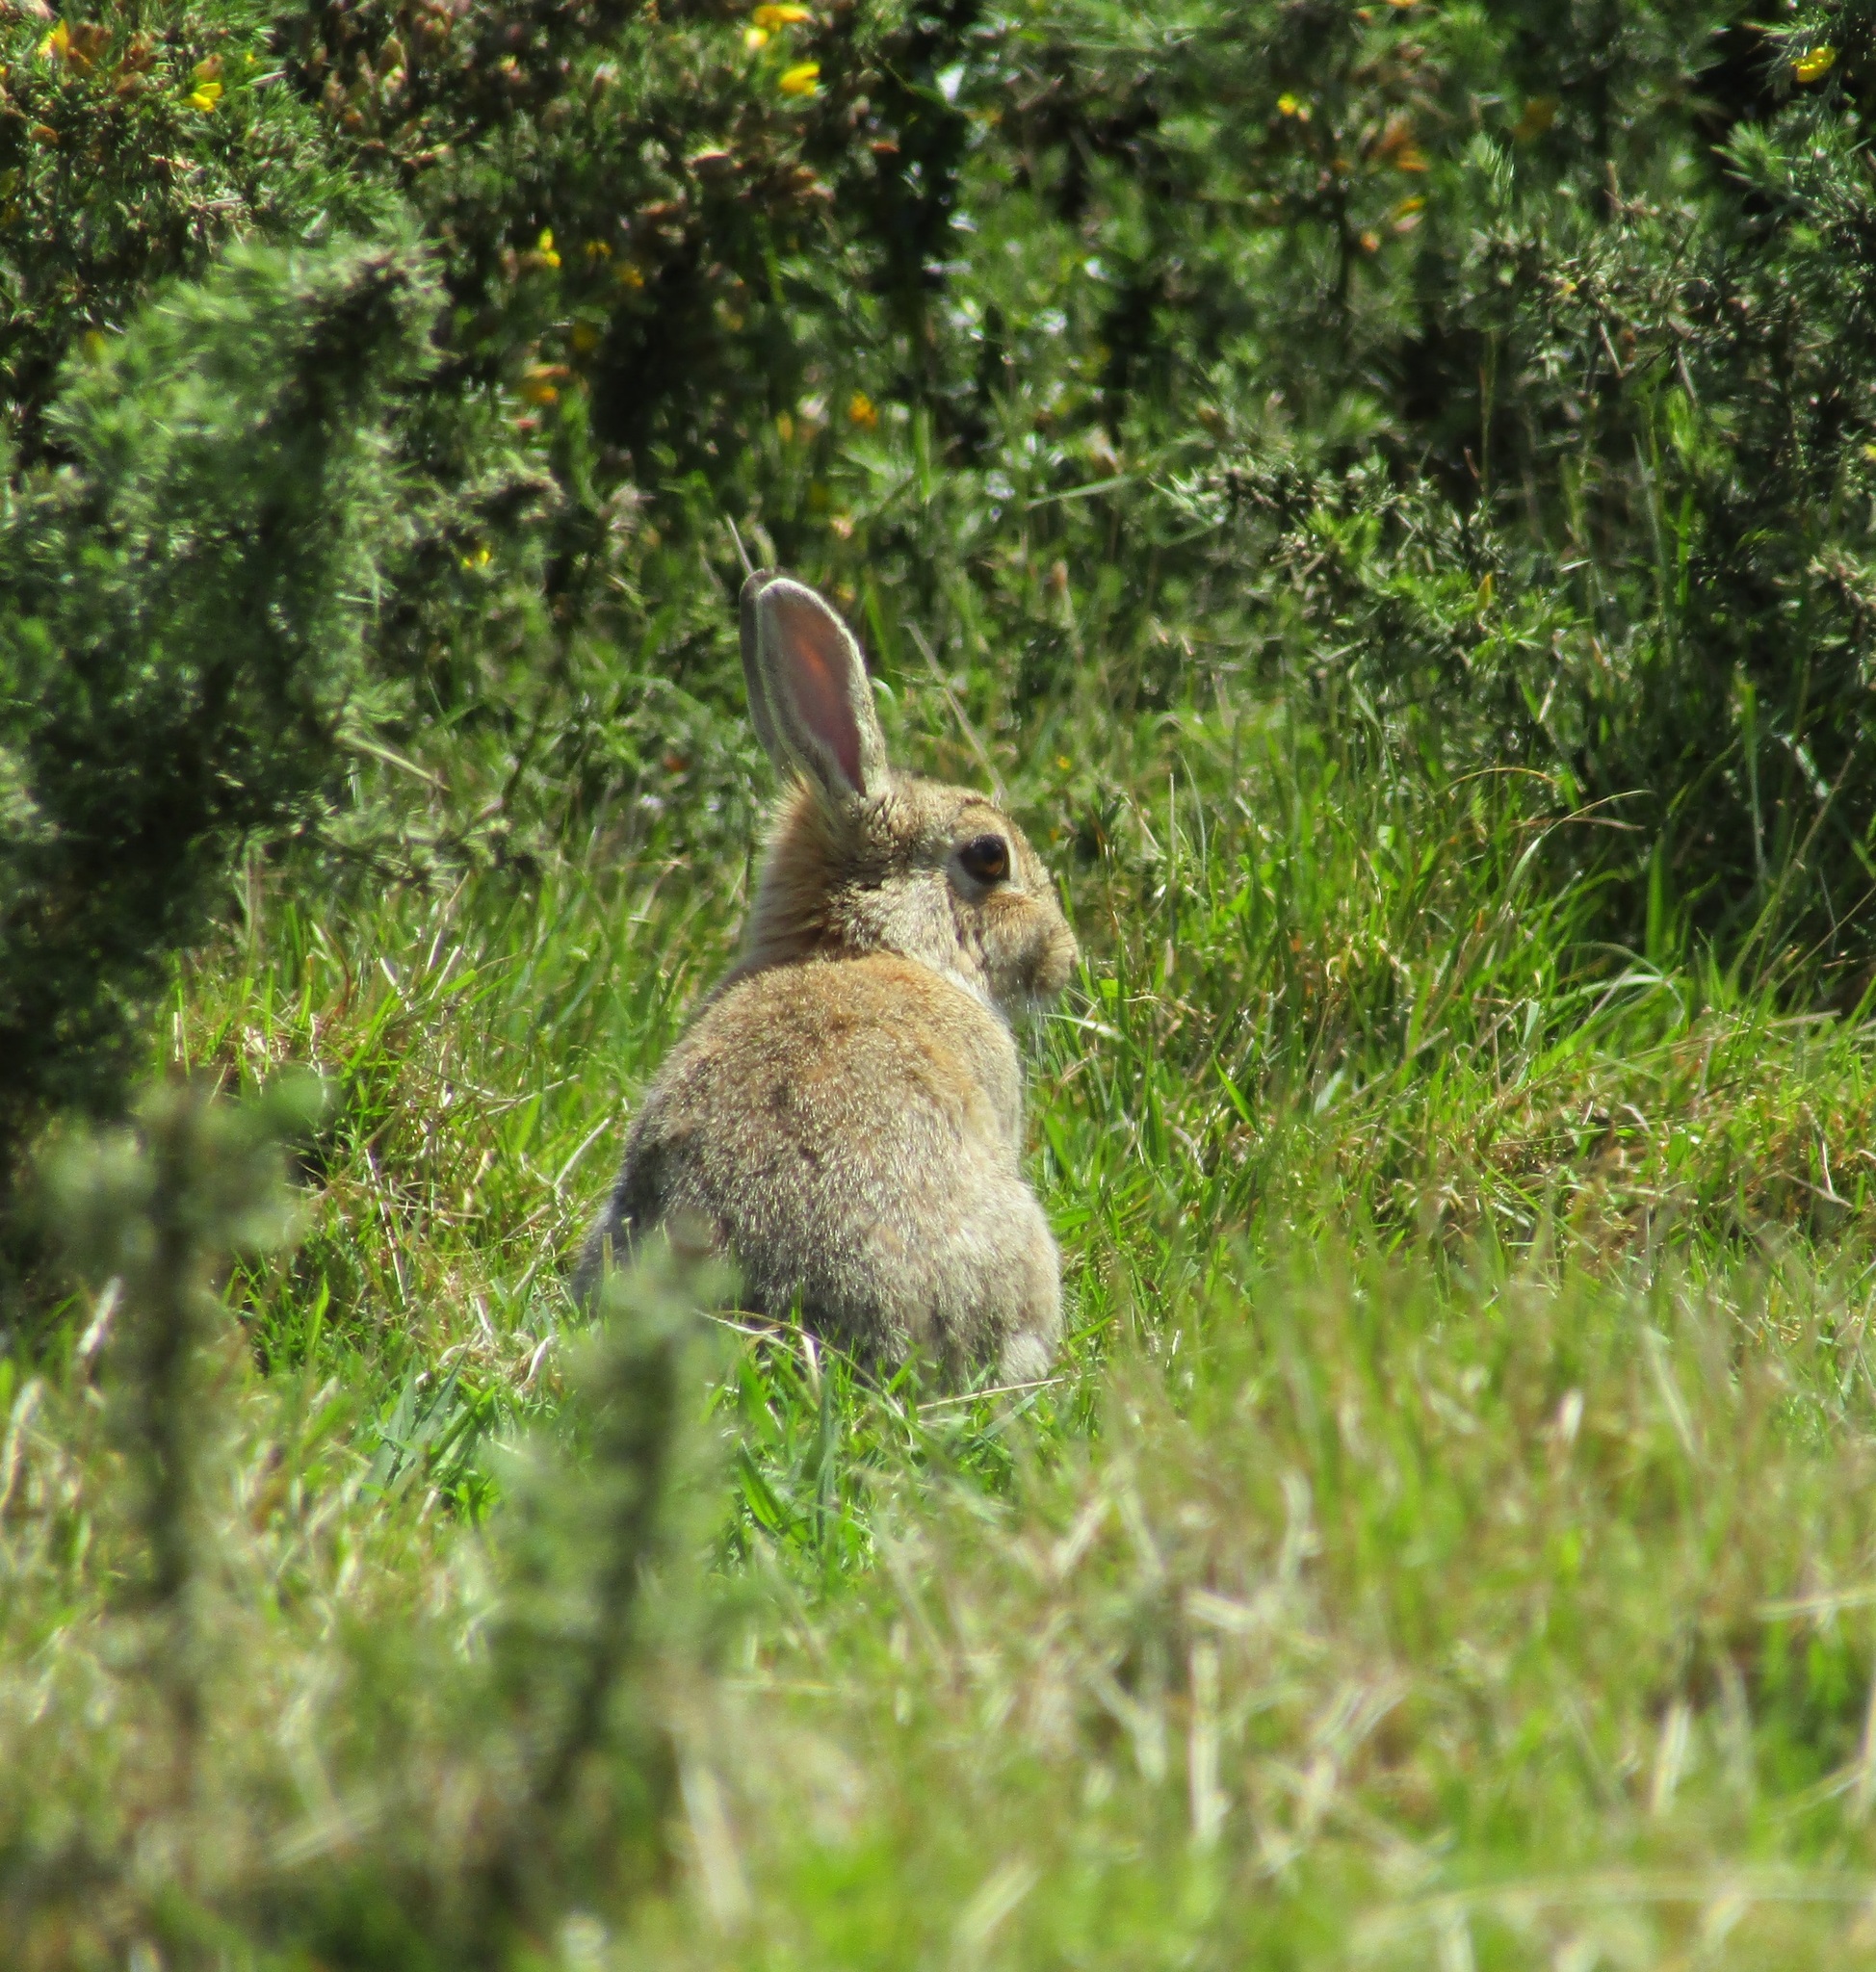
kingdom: Animalia
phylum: Chordata
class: Mammalia
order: Lagomorpha
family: Leporidae
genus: Oryctolagus
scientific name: Oryctolagus cuniculus
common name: European rabbit
